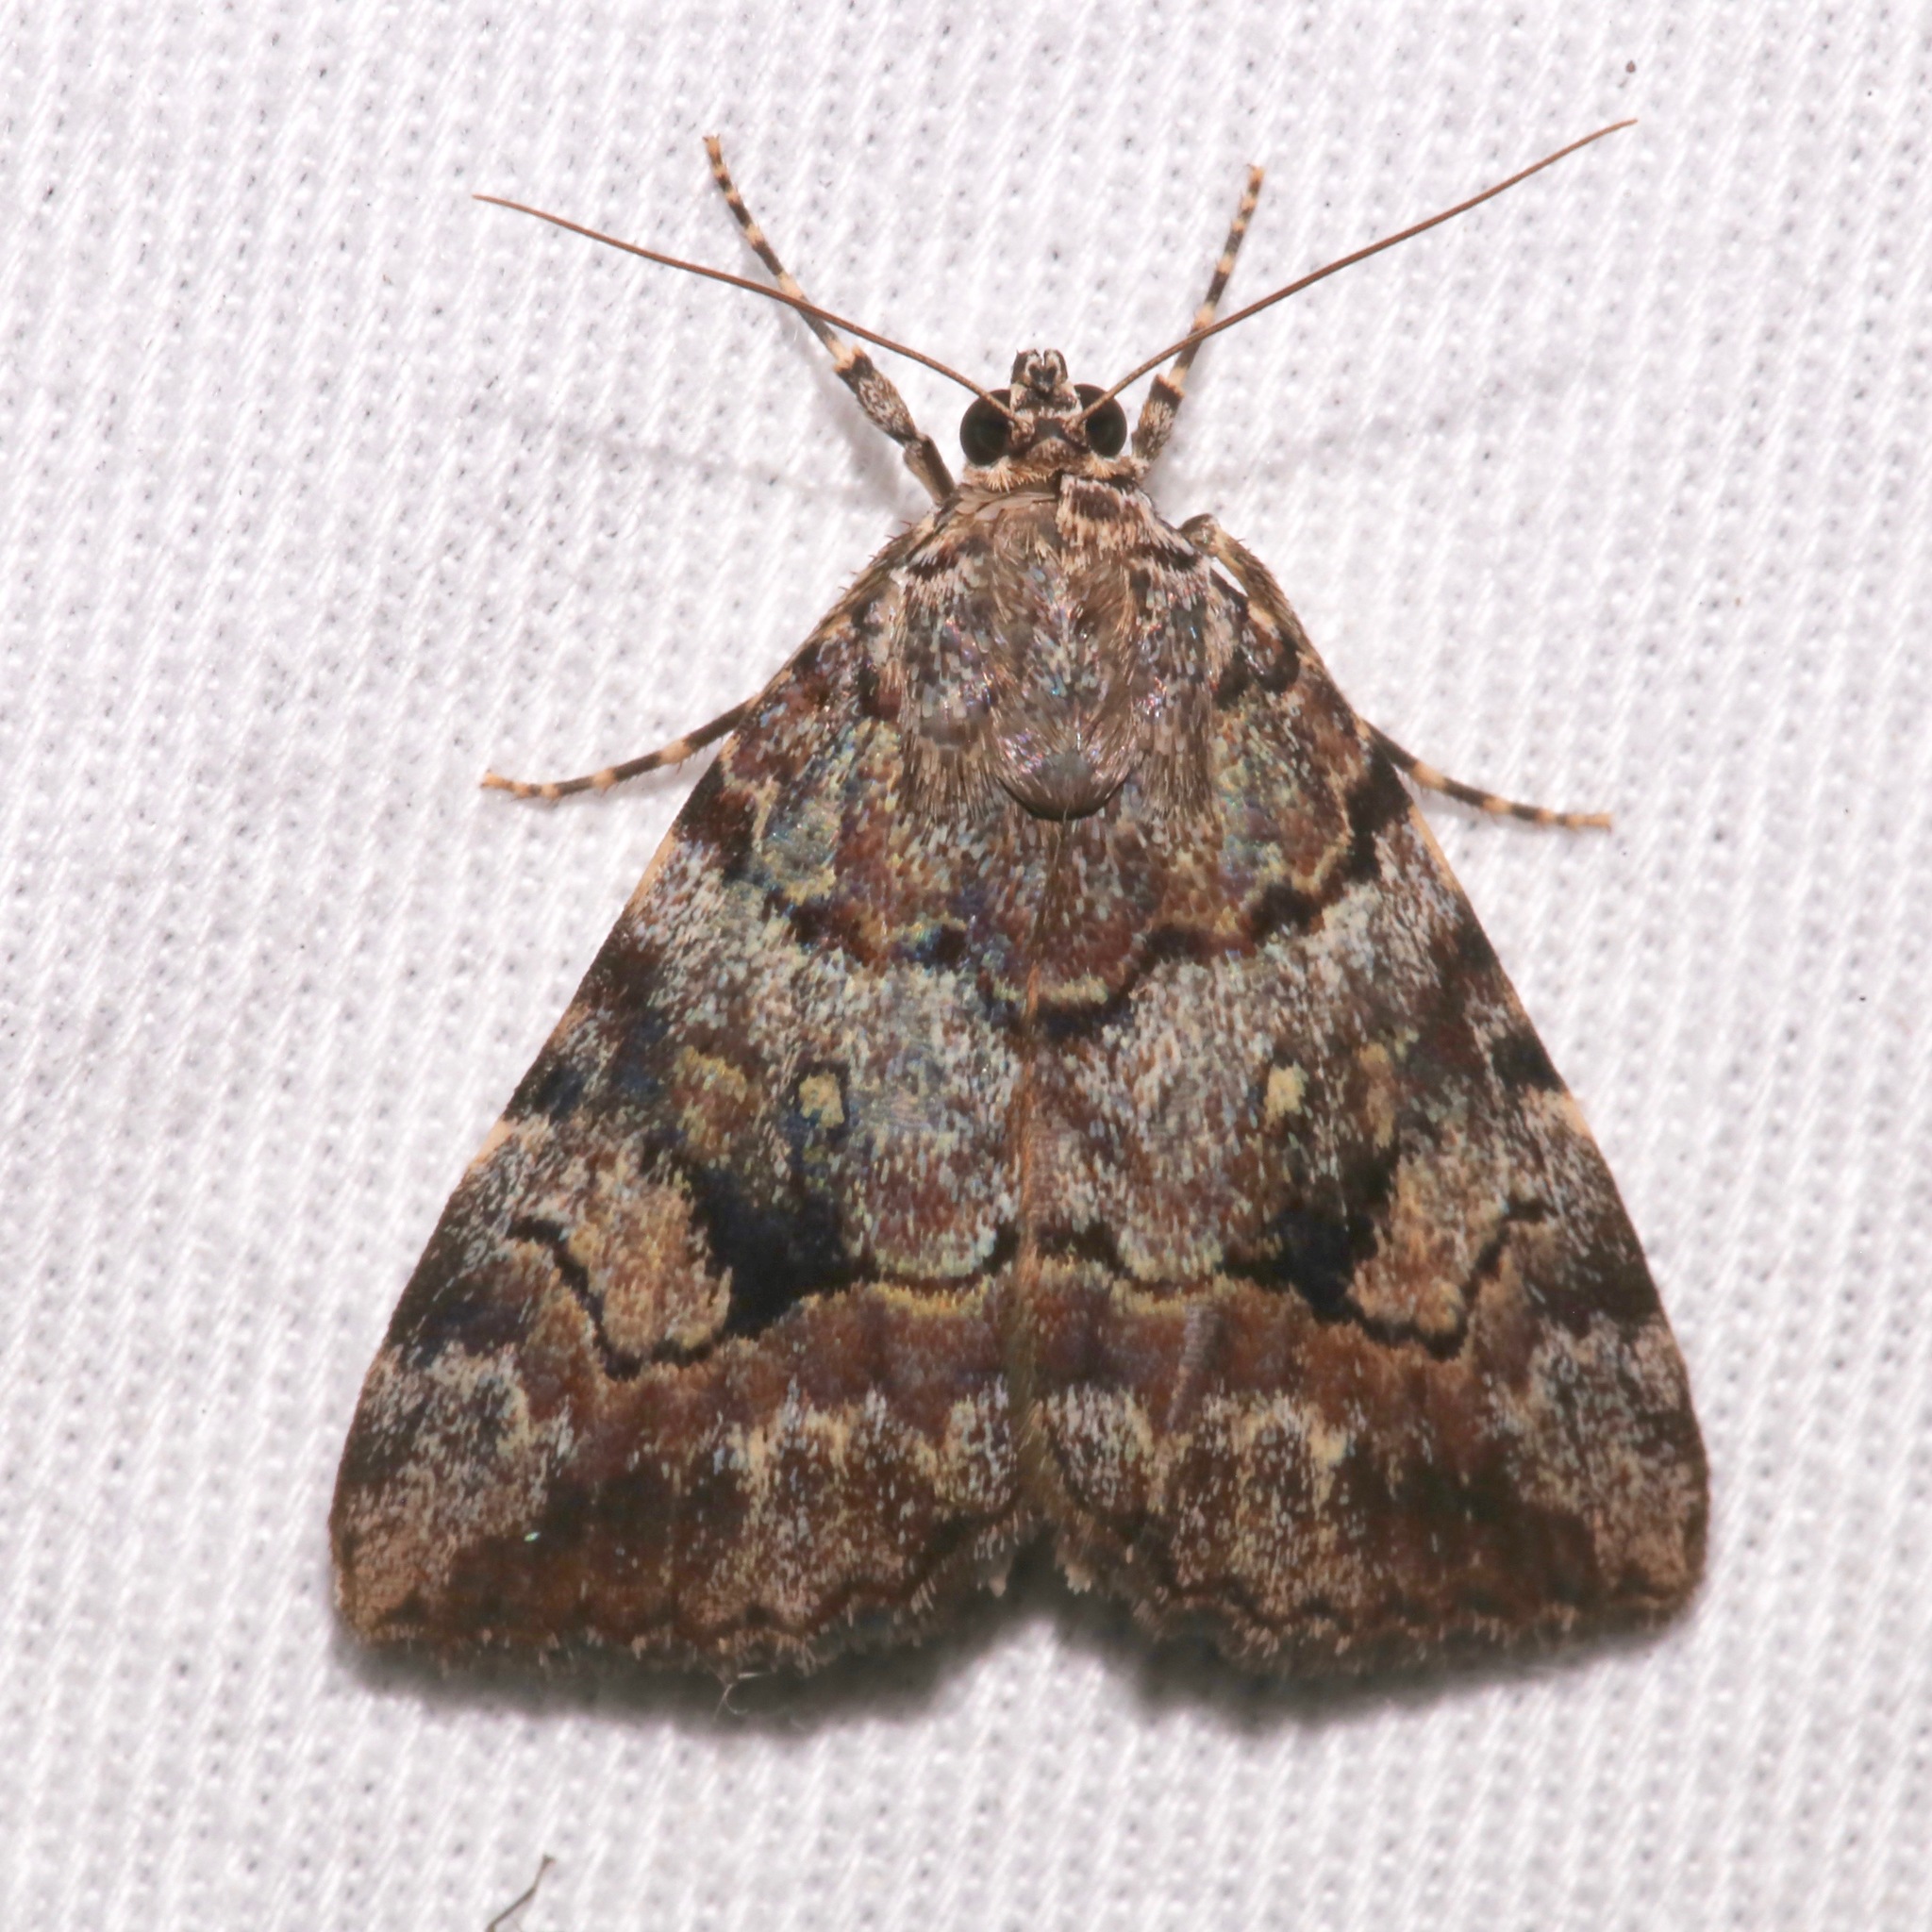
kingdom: Animalia
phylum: Arthropoda
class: Insecta
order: Lepidoptera
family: Erebidae
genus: Catocala
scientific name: Catocala jair
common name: Jair underwing
